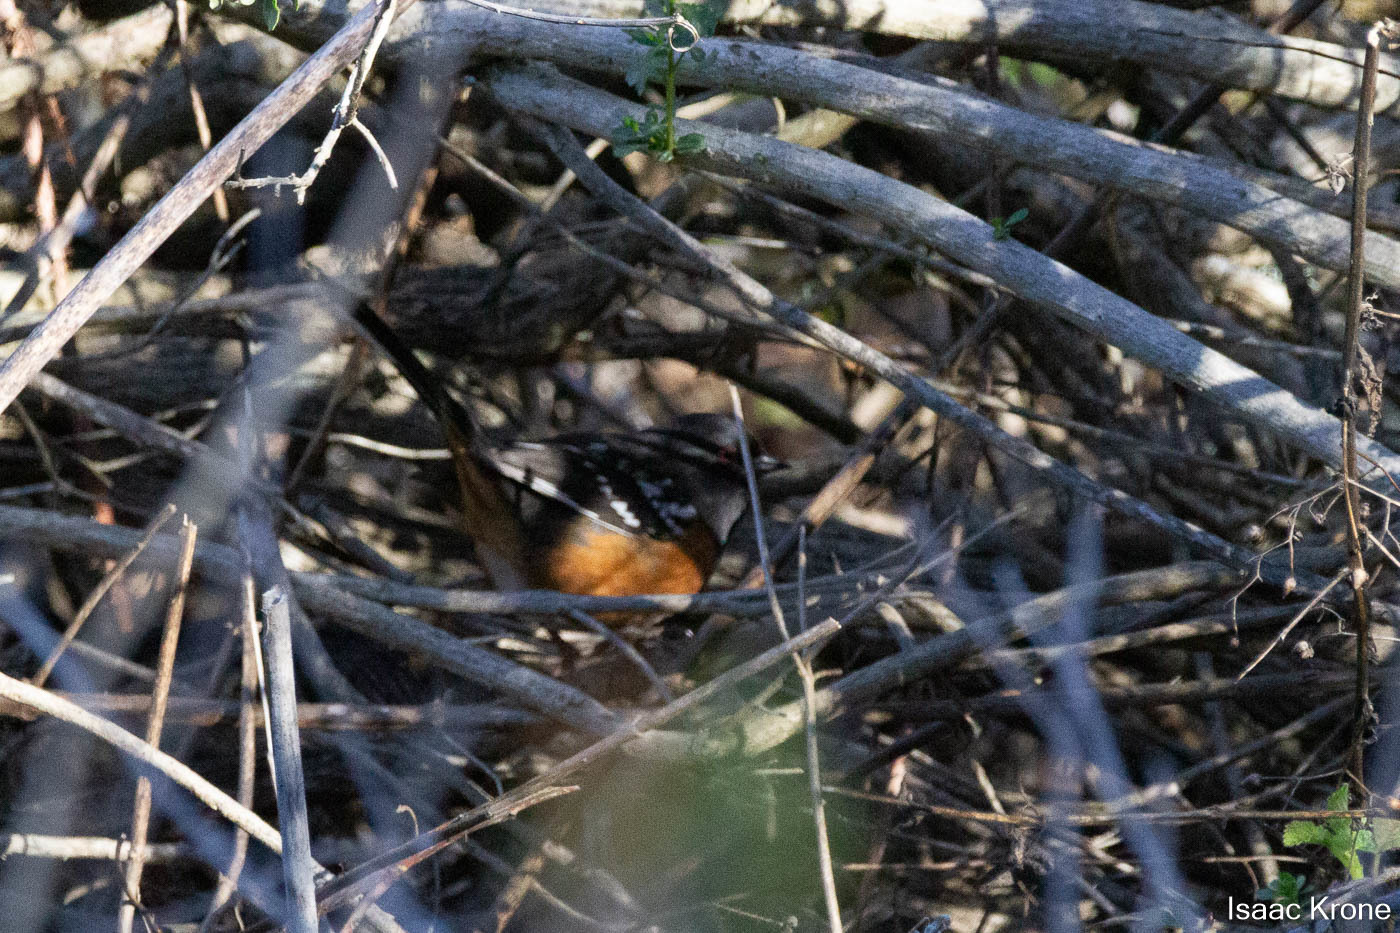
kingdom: Animalia
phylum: Chordata
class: Aves
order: Passeriformes
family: Passerellidae
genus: Pipilo
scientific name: Pipilo maculatus
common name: Spotted towhee
